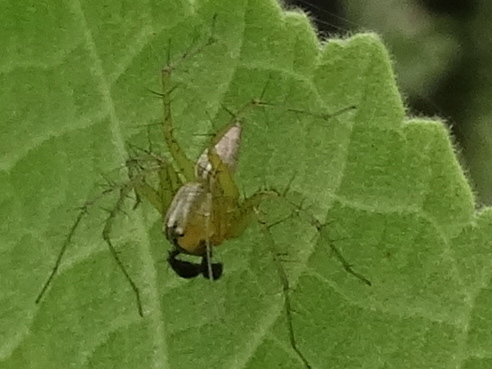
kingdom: Animalia
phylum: Arthropoda
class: Arachnida
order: Araneae
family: Oxyopidae
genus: Oxyopes
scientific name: Oxyopes salticus
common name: Lynx spiders
